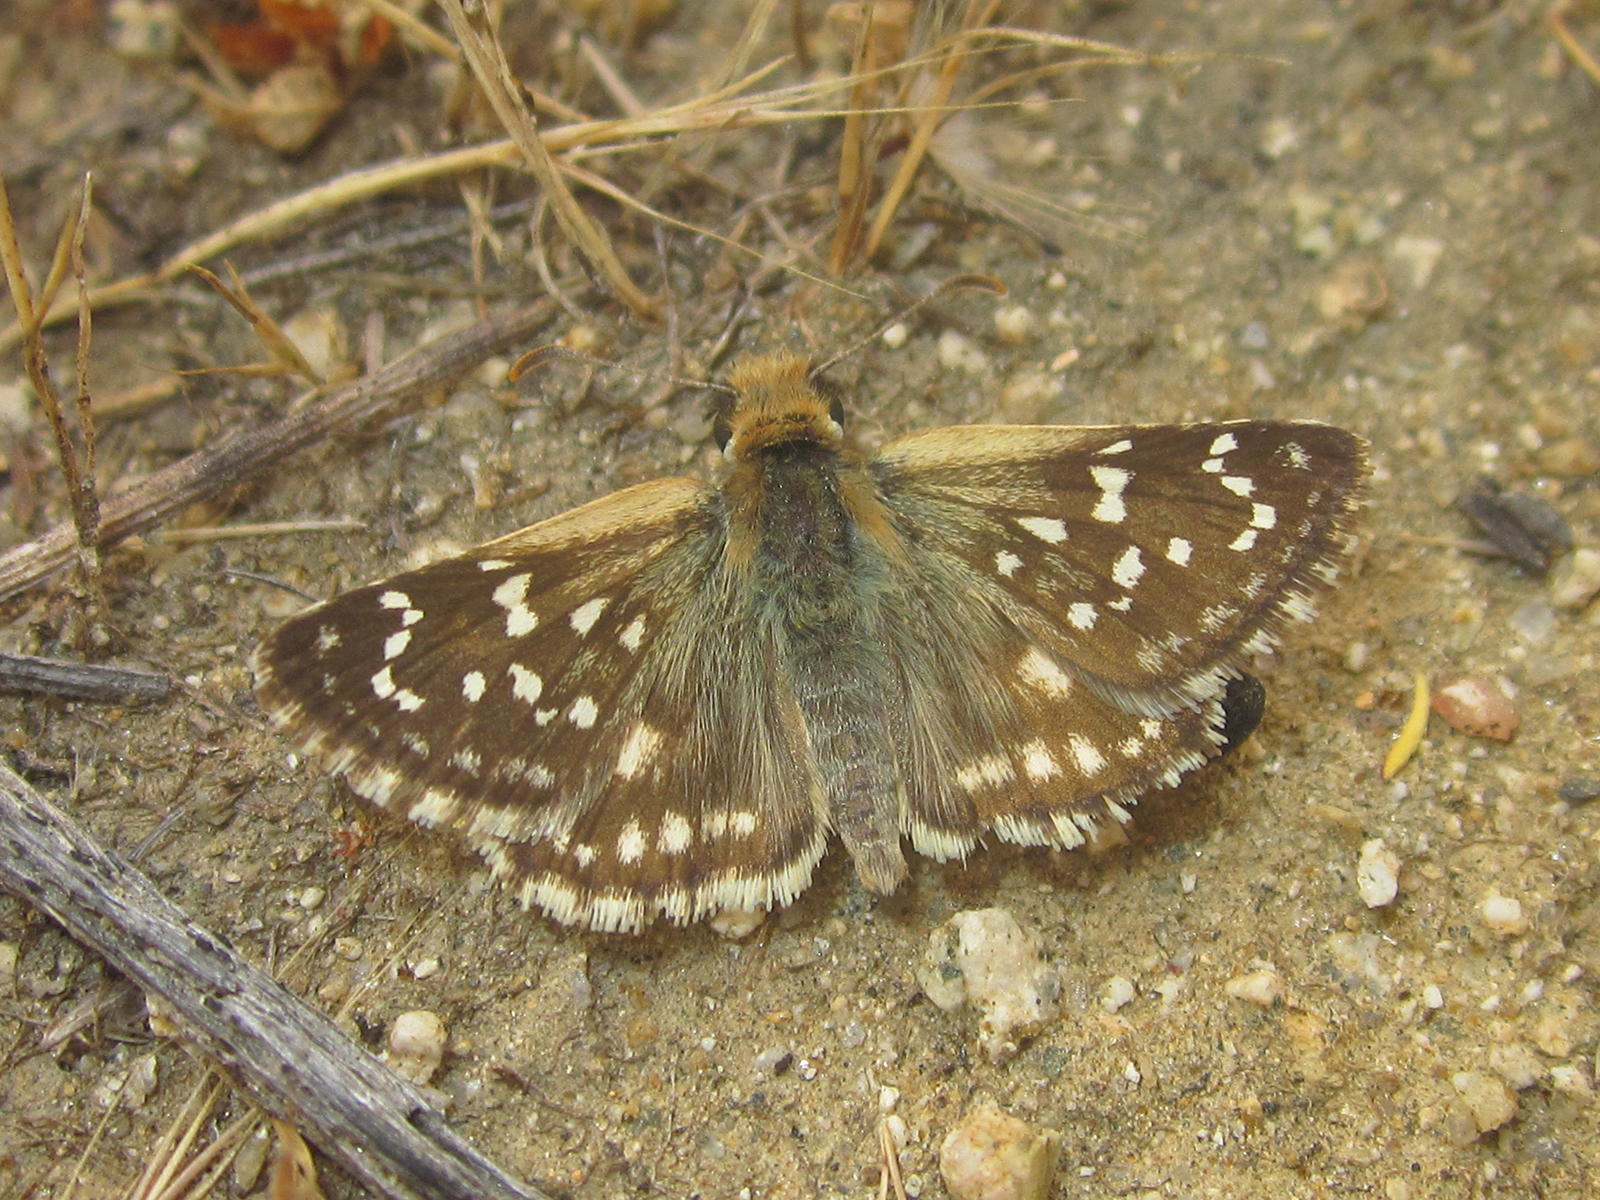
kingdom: Animalia
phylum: Arthropoda
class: Insecta
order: Lepidoptera
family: Hesperiidae
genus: Chirgus
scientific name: Chirgus fides
